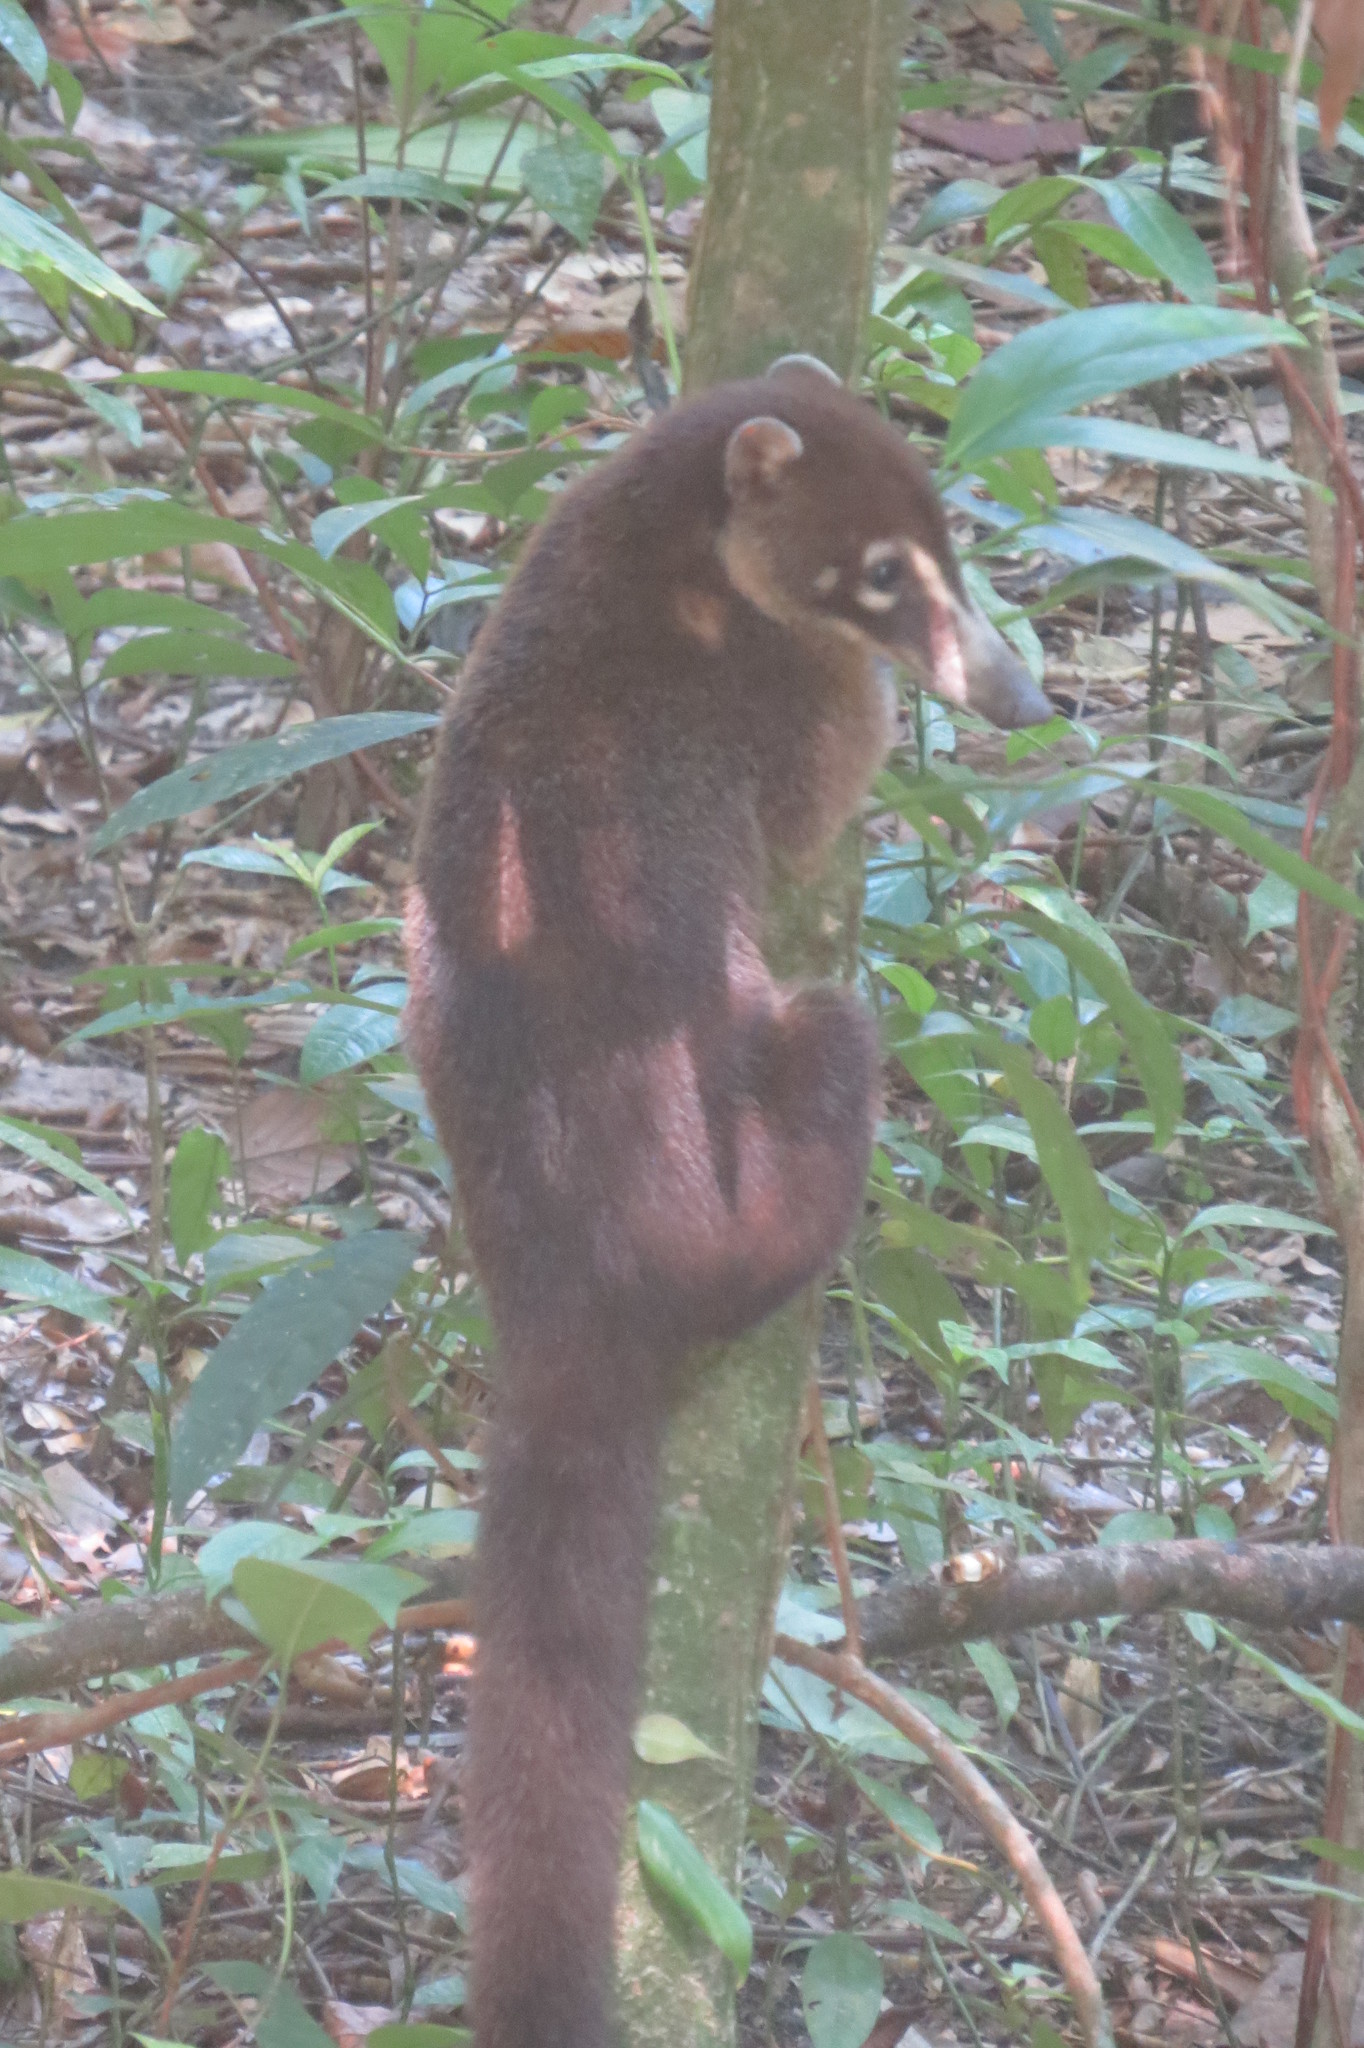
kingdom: Animalia
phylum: Chordata
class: Mammalia
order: Carnivora
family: Procyonidae
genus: Nasua
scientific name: Nasua narica
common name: White-nosed coati
